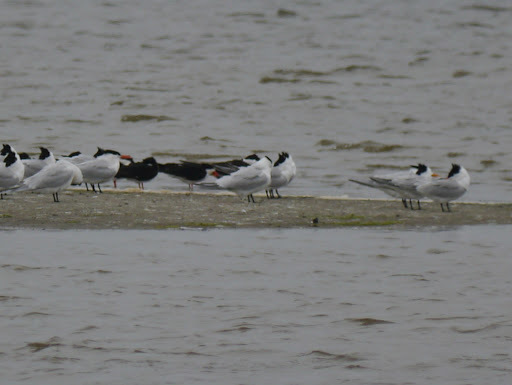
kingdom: Animalia
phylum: Chordata
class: Aves
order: Charadriiformes
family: Laridae
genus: Thalasseus
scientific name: Thalasseus maximus
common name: Royal tern
